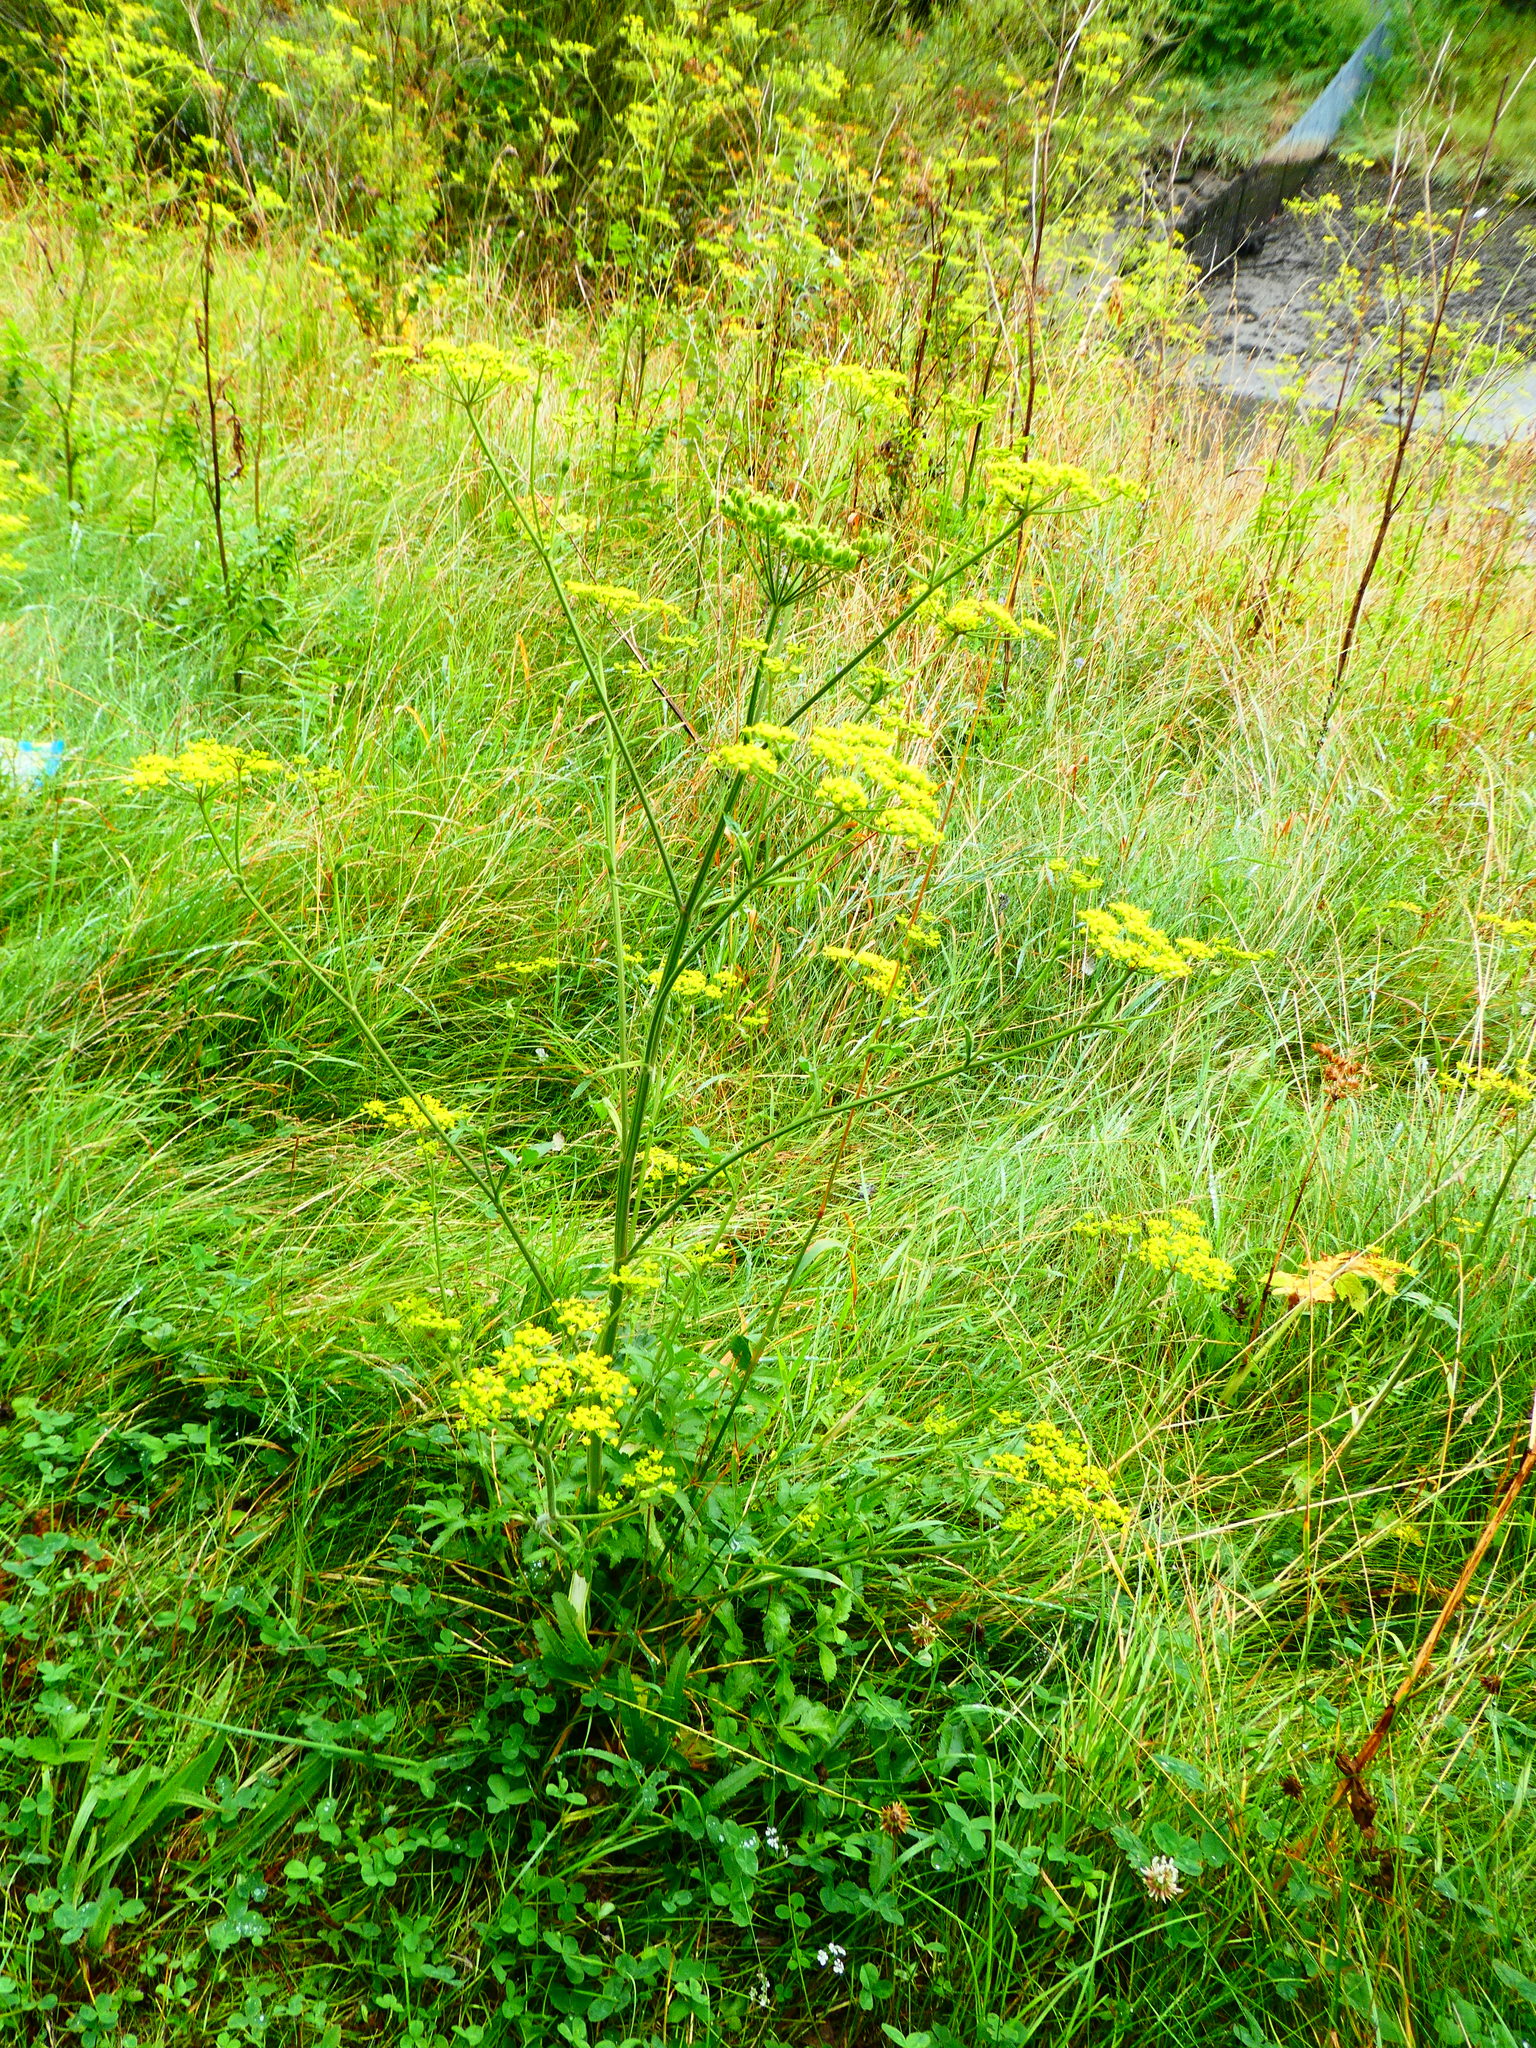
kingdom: Plantae
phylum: Tracheophyta
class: Magnoliopsida
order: Apiales
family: Apiaceae
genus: Pastinaca
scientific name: Pastinaca sativa
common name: Wild parsnip
